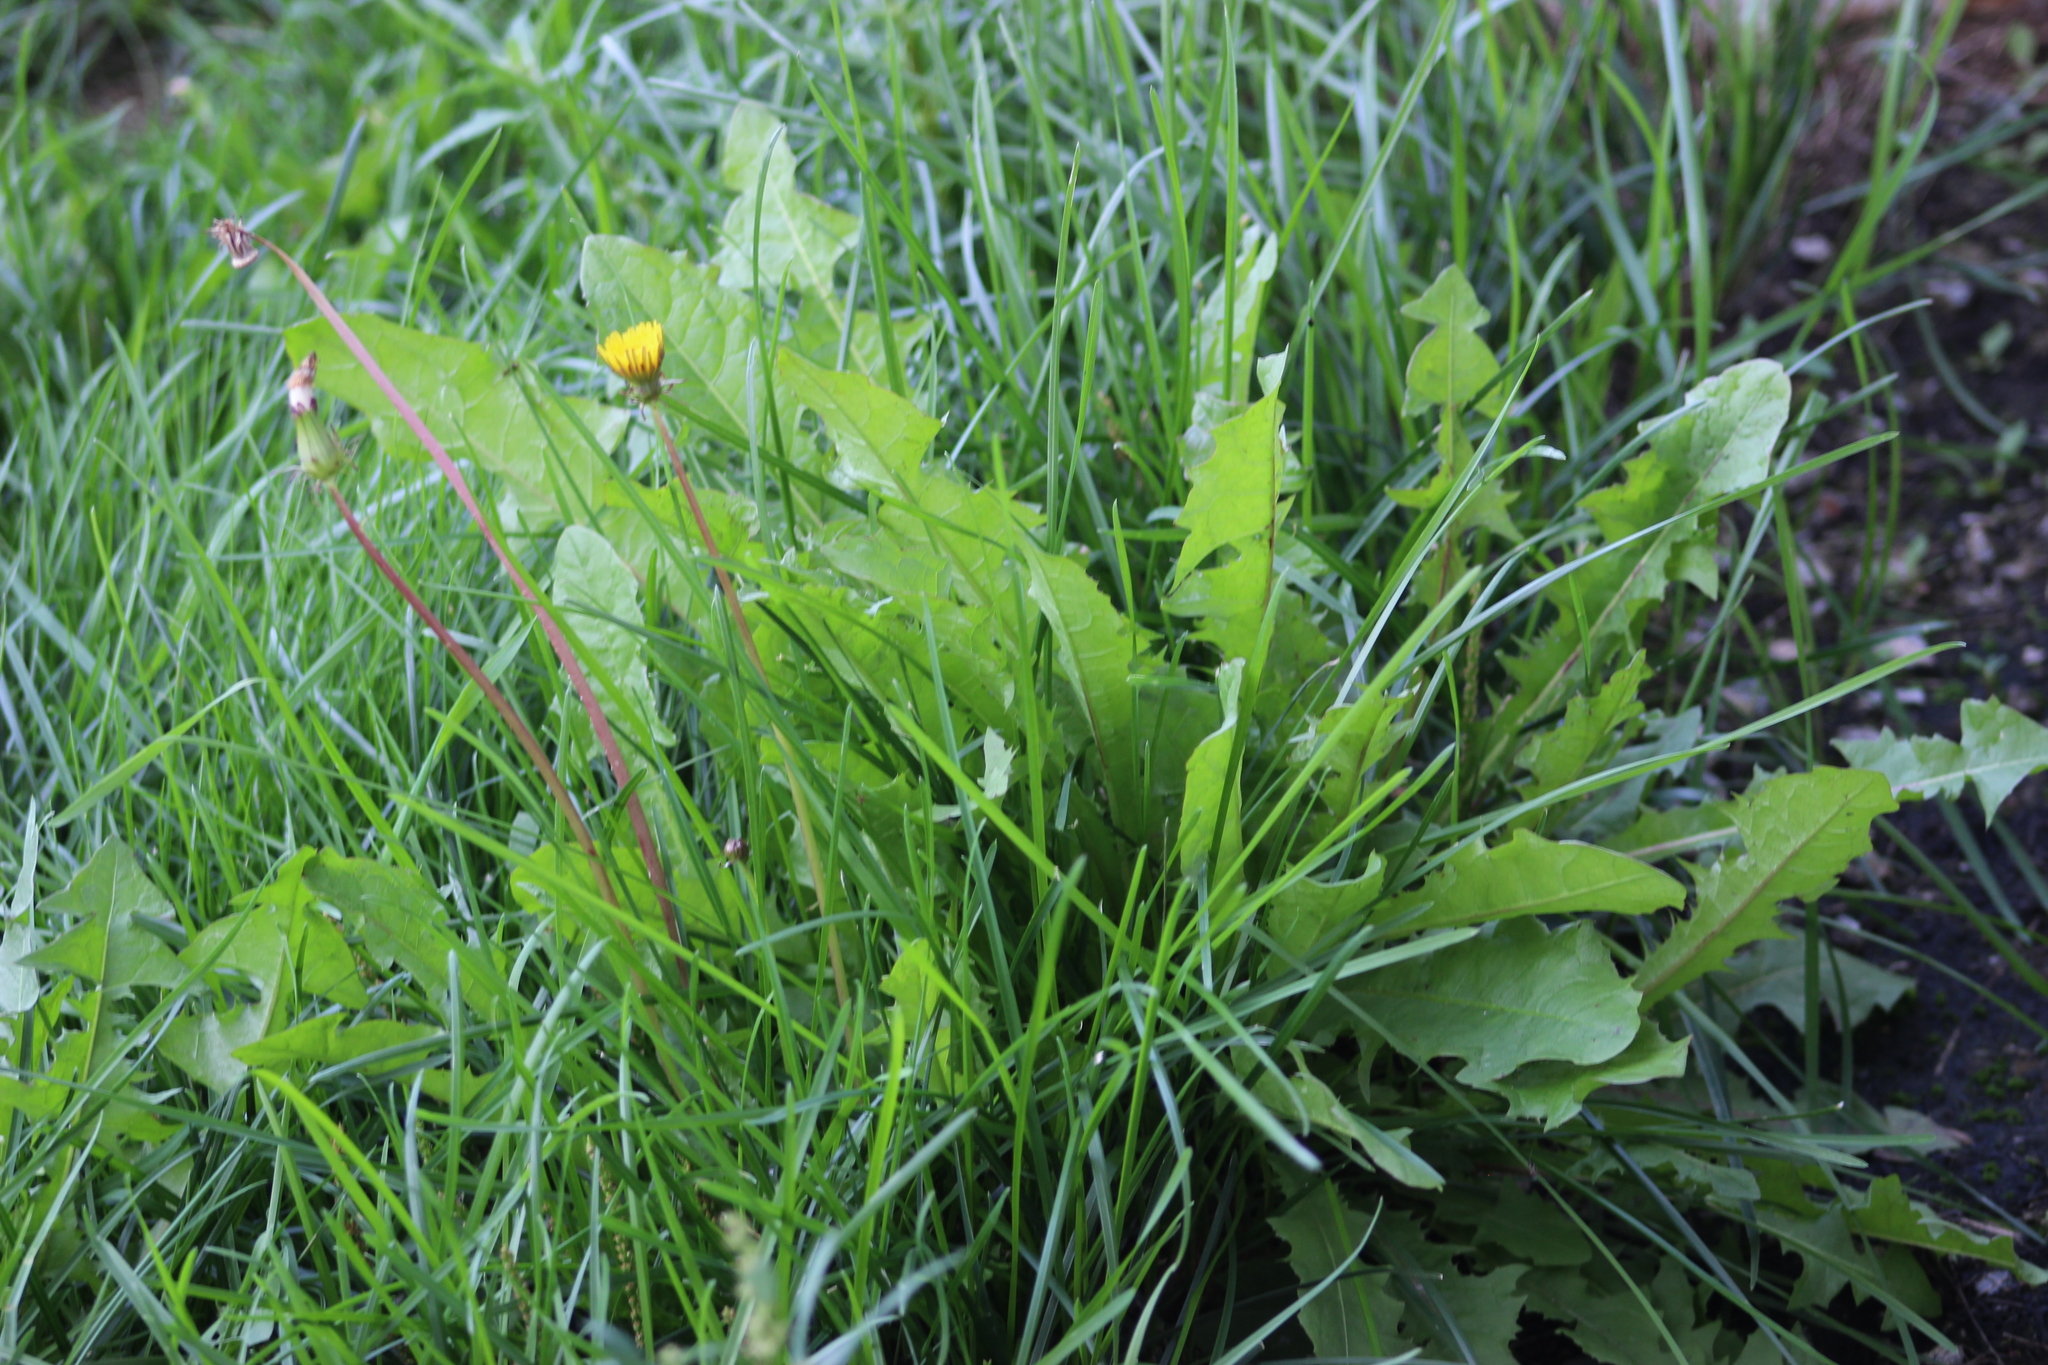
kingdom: Plantae
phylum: Tracheophyta
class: Magnoliopsida
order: Asterales
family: Asteraceae
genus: Taraxacum
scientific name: Taraxacum officinale
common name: Common dandelion
